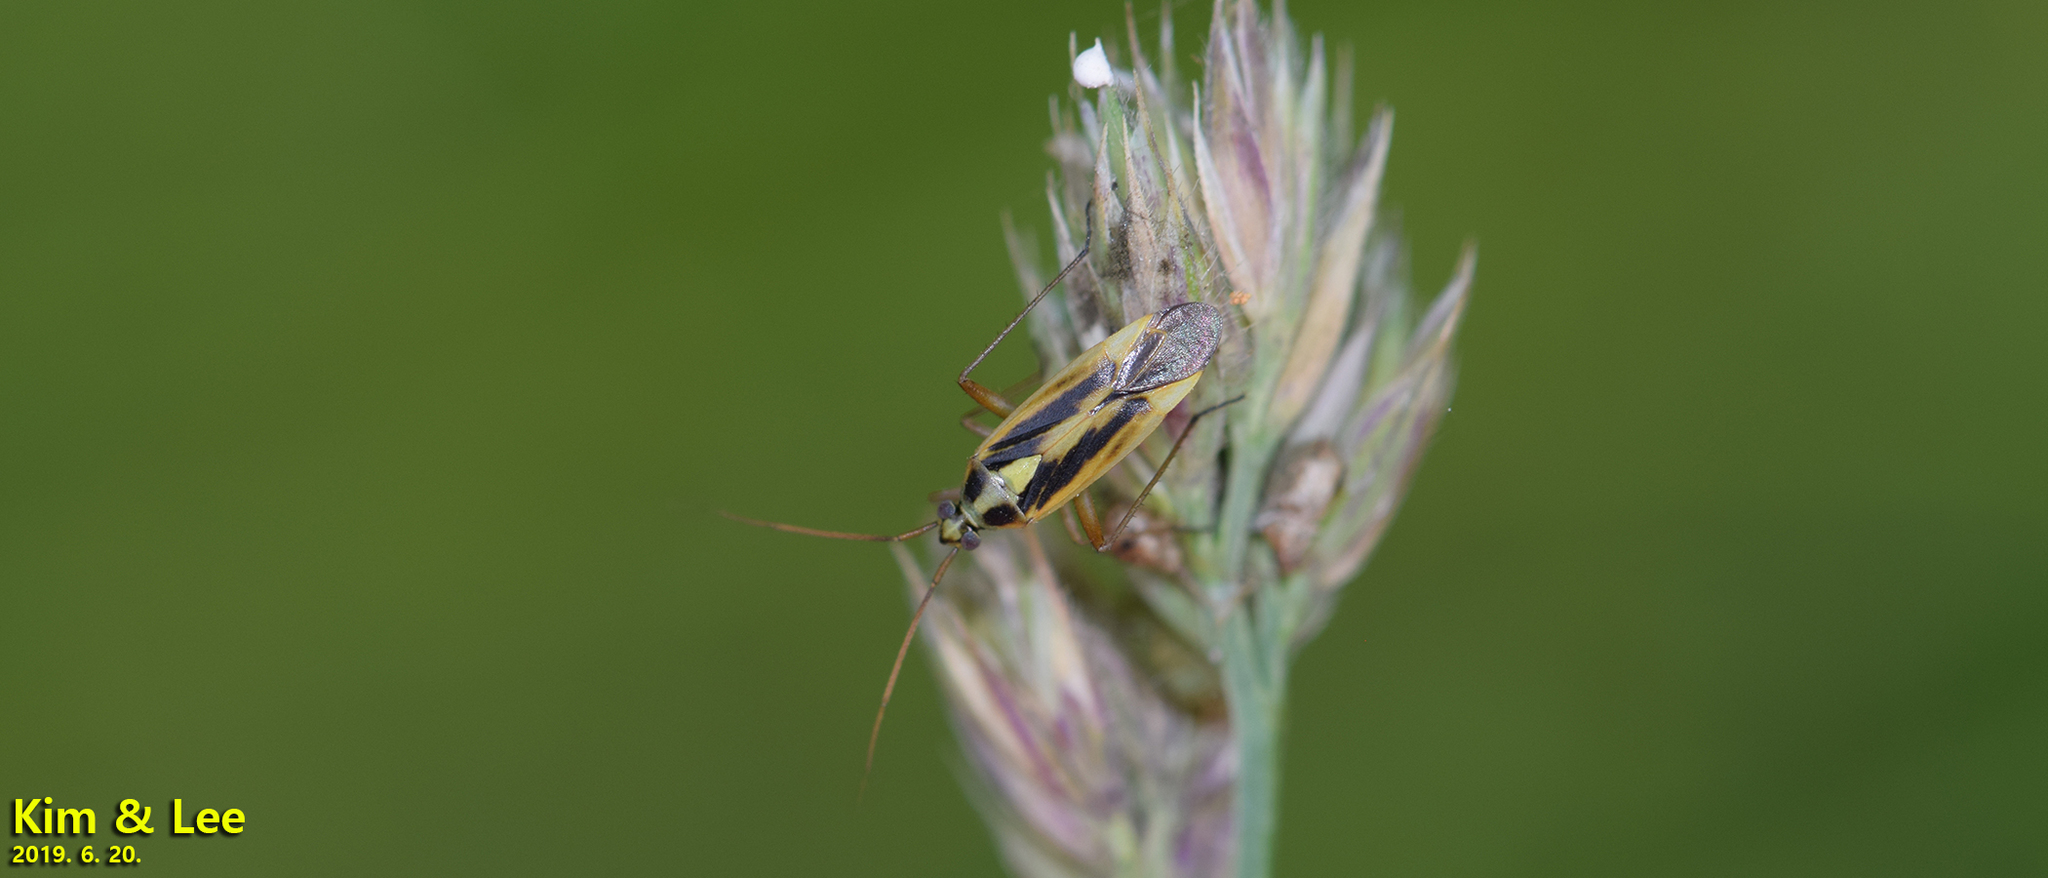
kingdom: Animalia
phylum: Arthropoda
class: Insecta
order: Hemiptera
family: Miridae
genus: Stenotus
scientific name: Stenotus binotatus
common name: Plant bug
